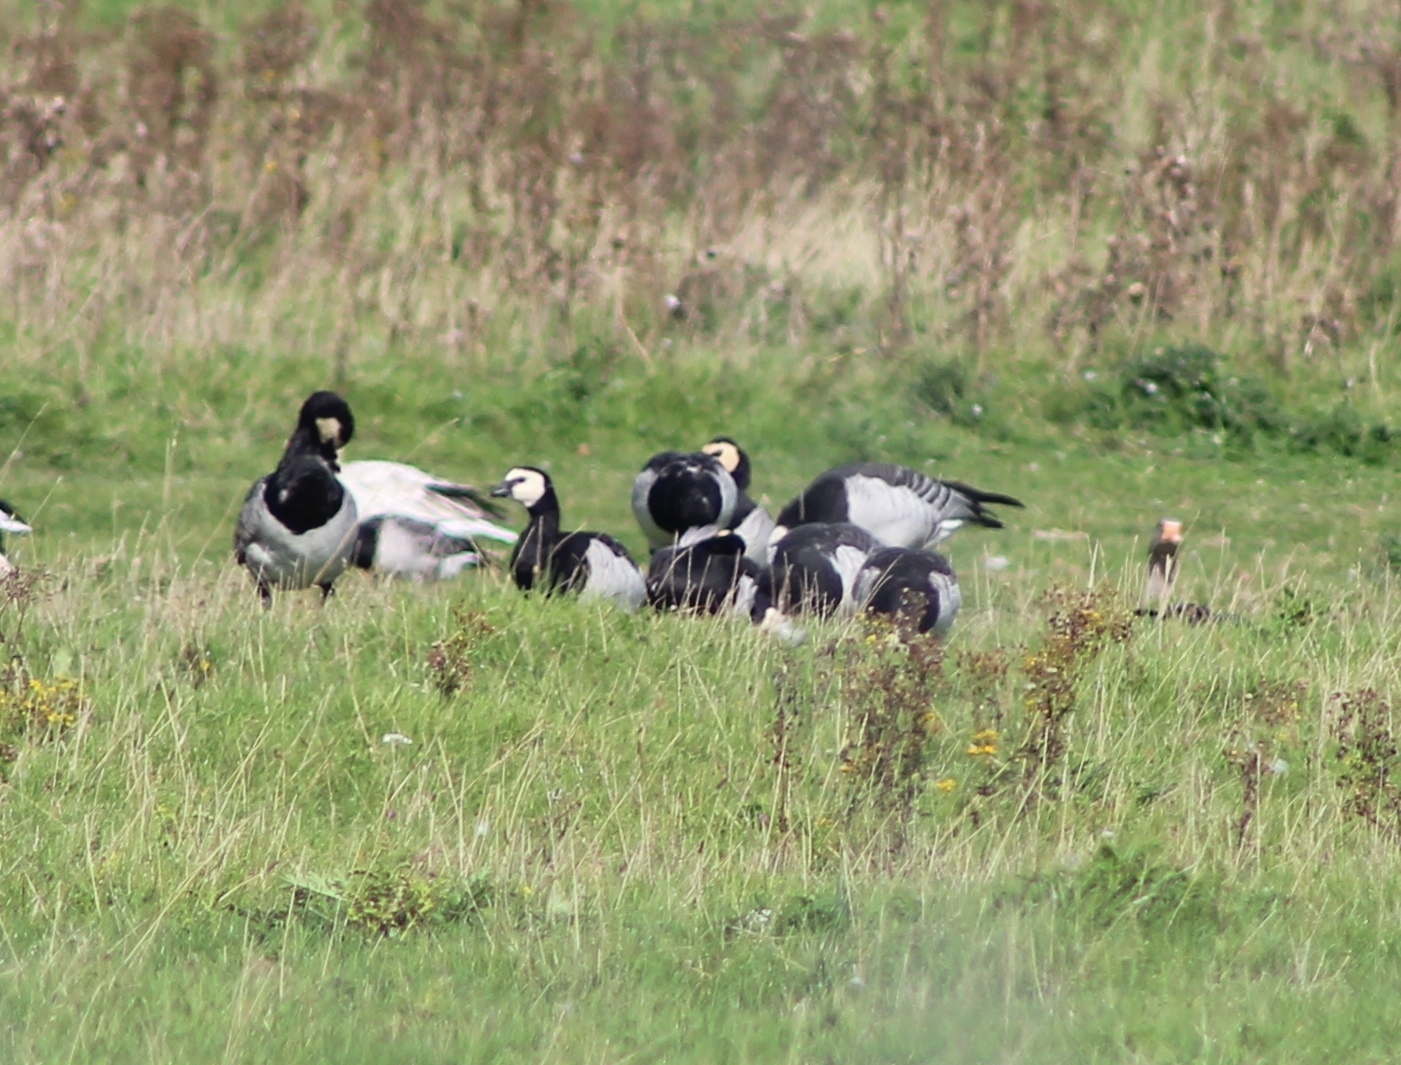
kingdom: Animalia
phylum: Chordata
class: Aves
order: Anseriformes
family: Anatidae
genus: Branta
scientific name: Branta leucopsis
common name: Barnacle goose
